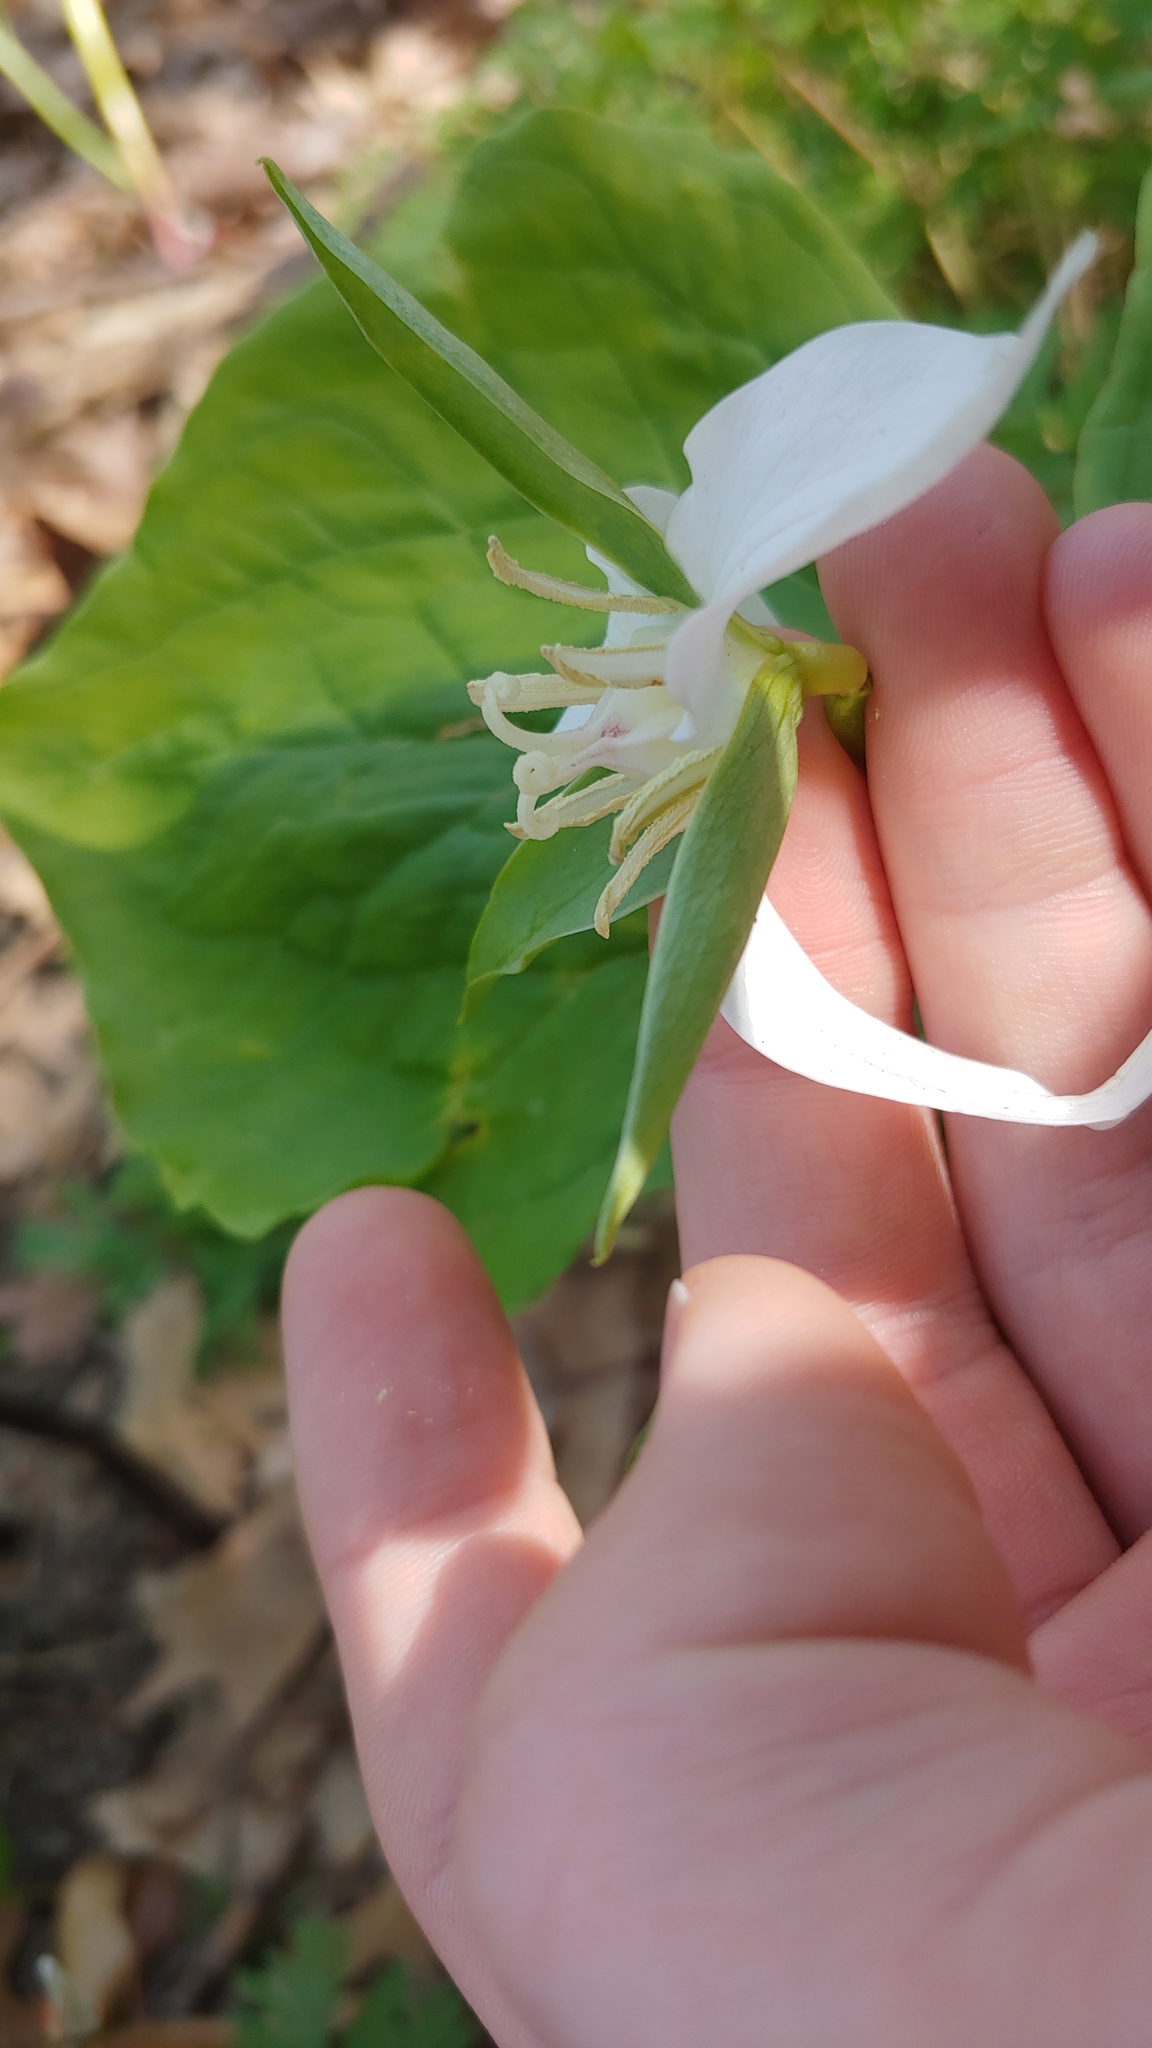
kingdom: Plantae
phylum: Tracheophyta
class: Liliopsida
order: Liliales
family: Melanthiaceae
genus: Trillium
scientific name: Trillium flexipes
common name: Drooping trillium
